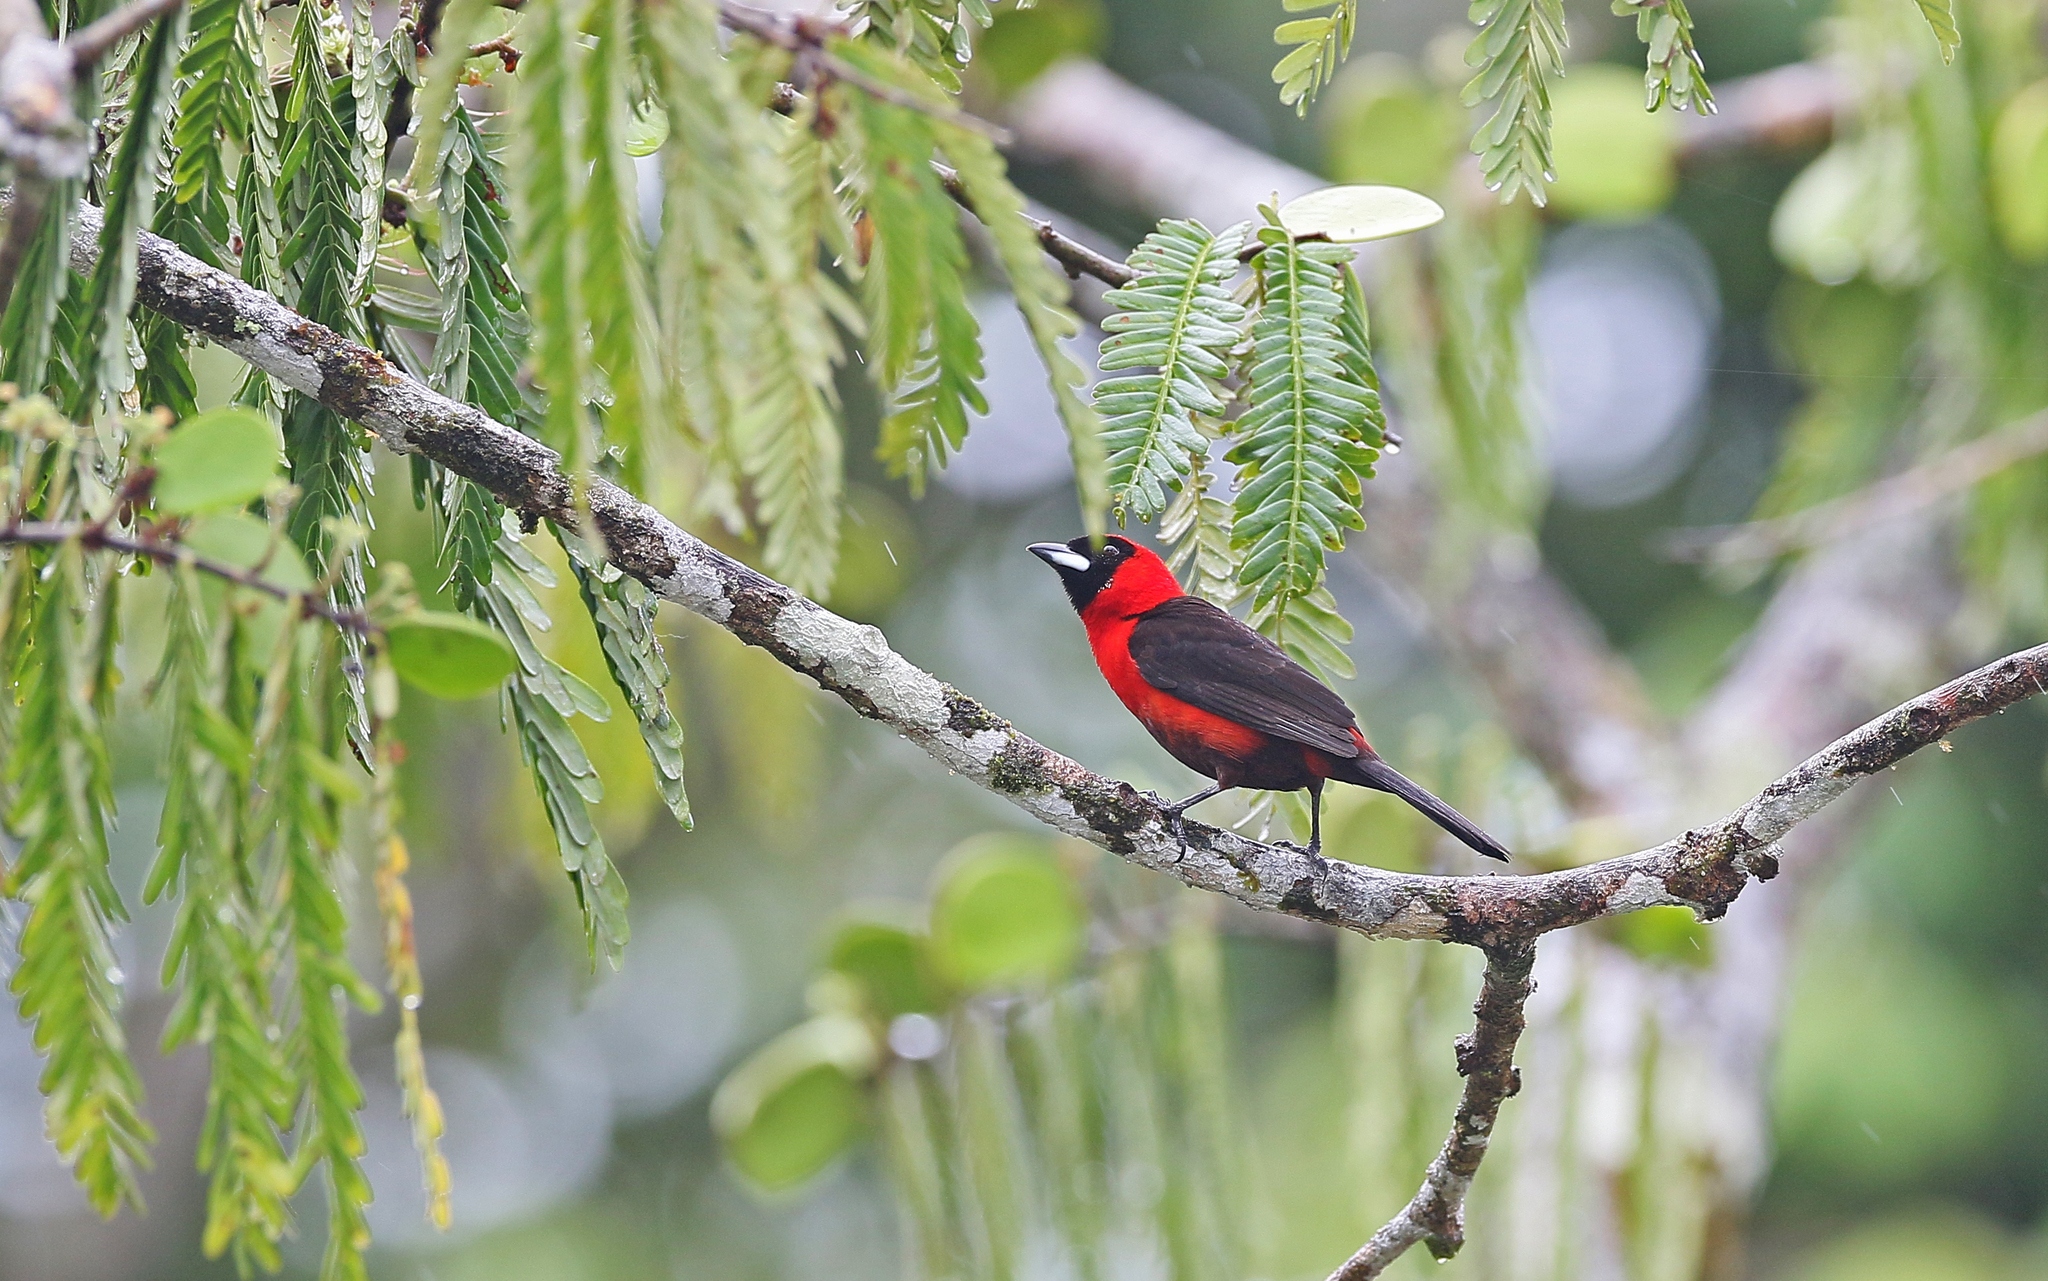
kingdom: Animalia
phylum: Chordata
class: Aves
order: Passeriformes
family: Thraupidae
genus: Ramphocelus
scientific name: Ramphocelus nigrogularis
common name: Masked crimson tanager
